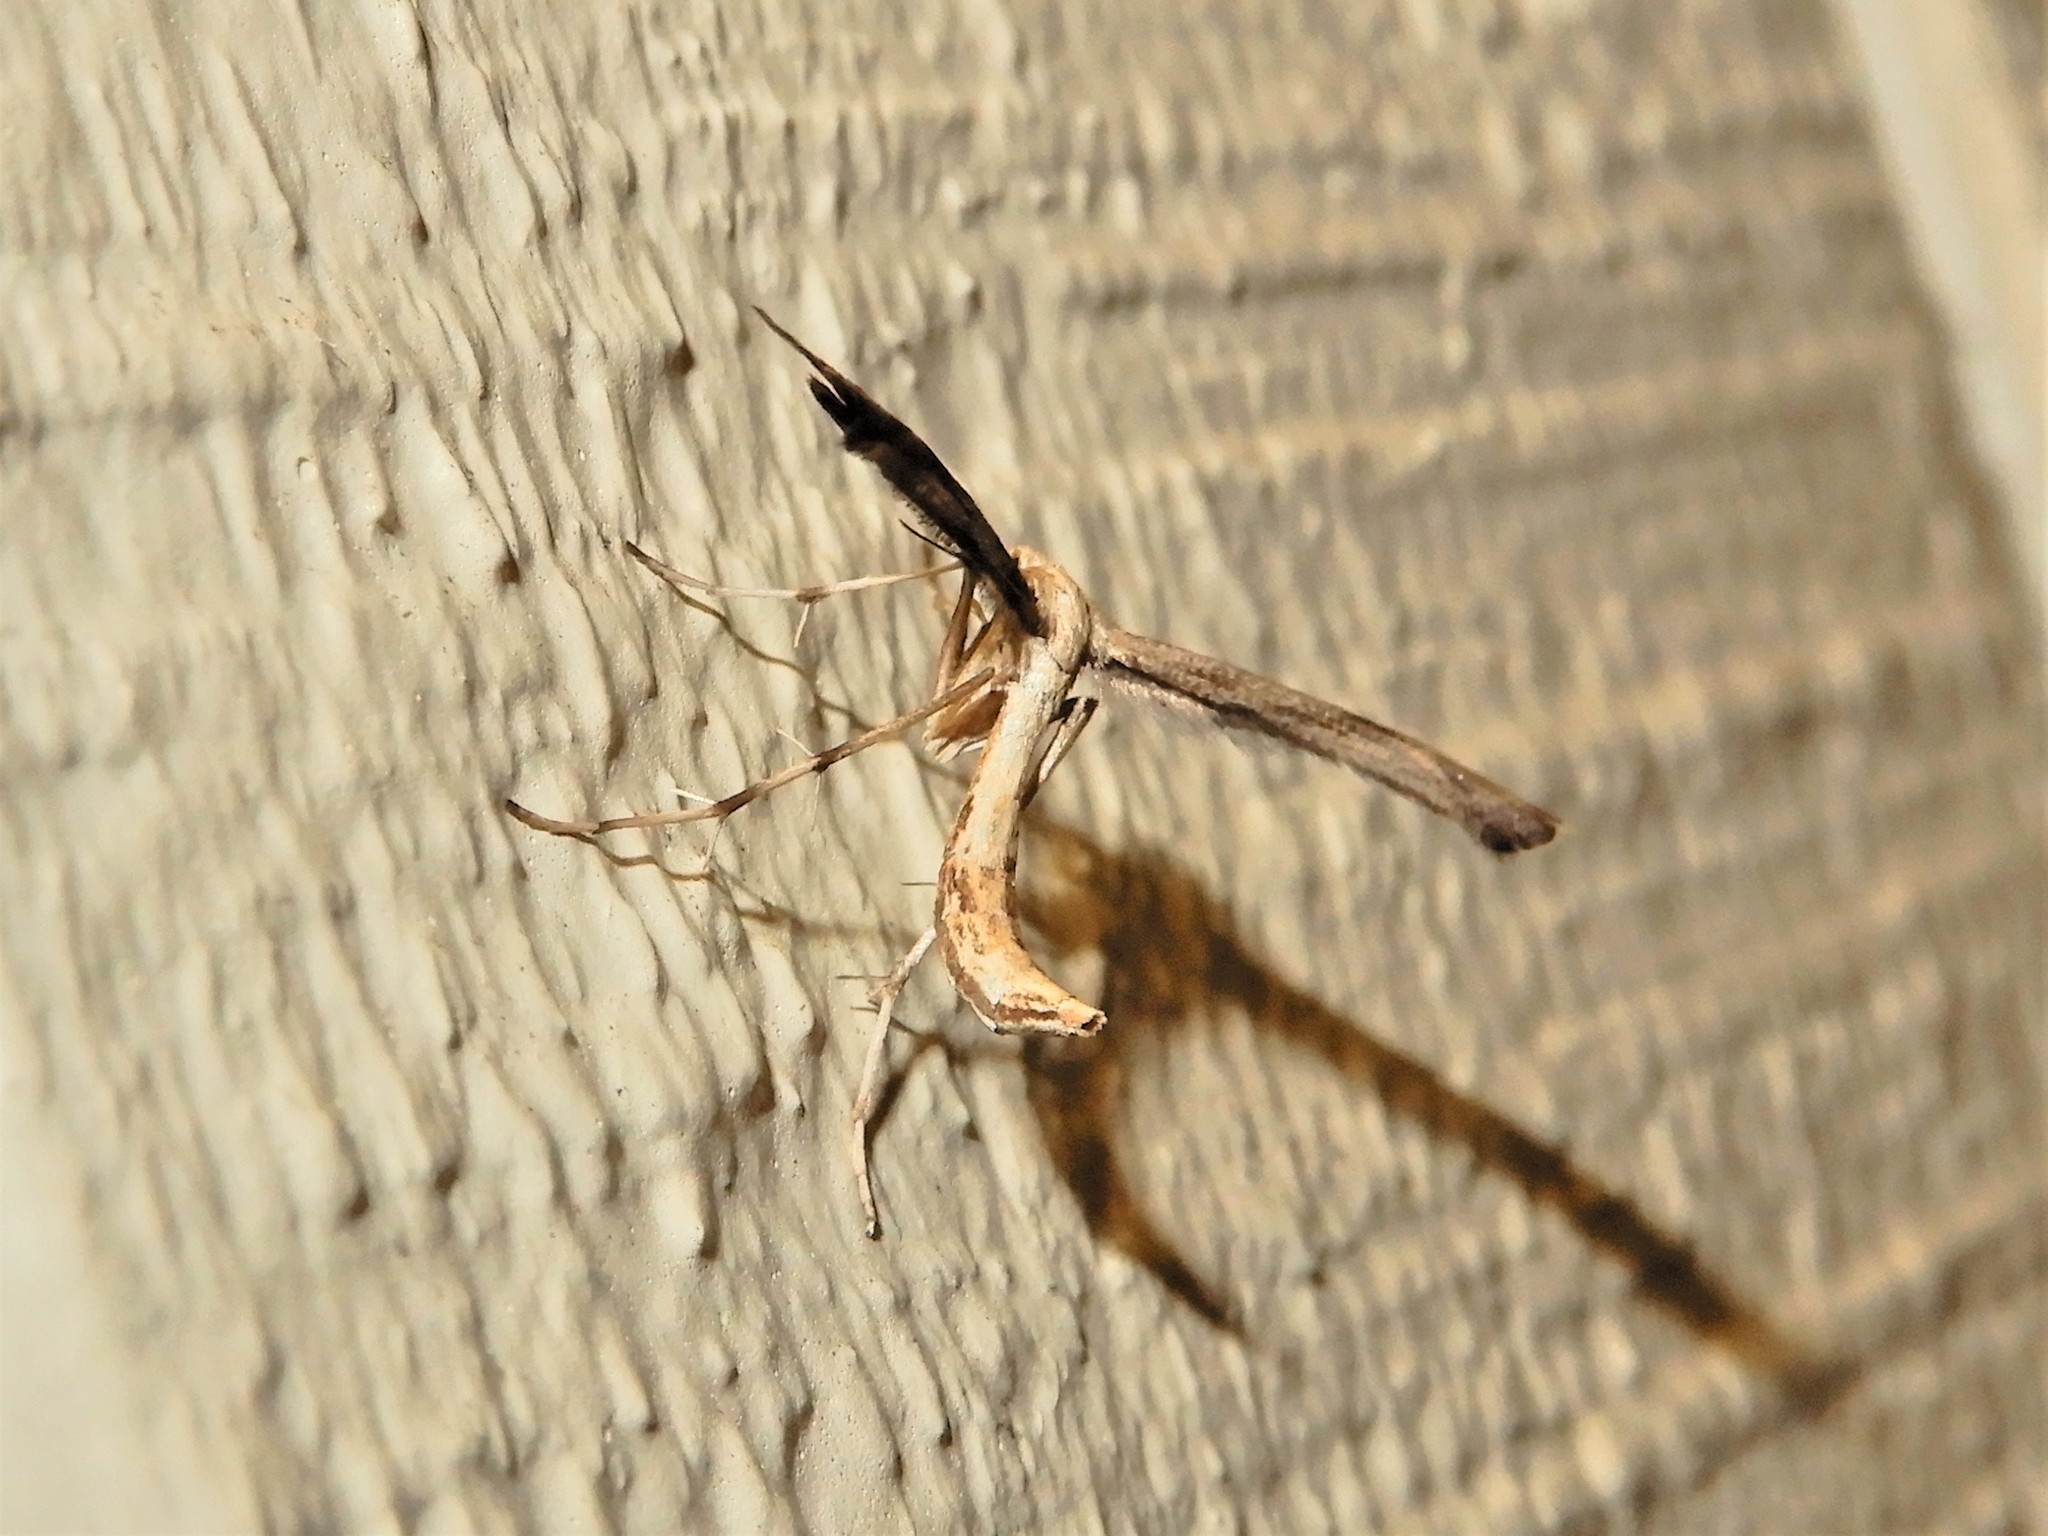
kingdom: Animalia
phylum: Arthropoda
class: Insecta
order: Lepidoptera
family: Pterophoridae
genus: Platyptilia
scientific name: Platyptilia isodactylus
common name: Hoary plume
